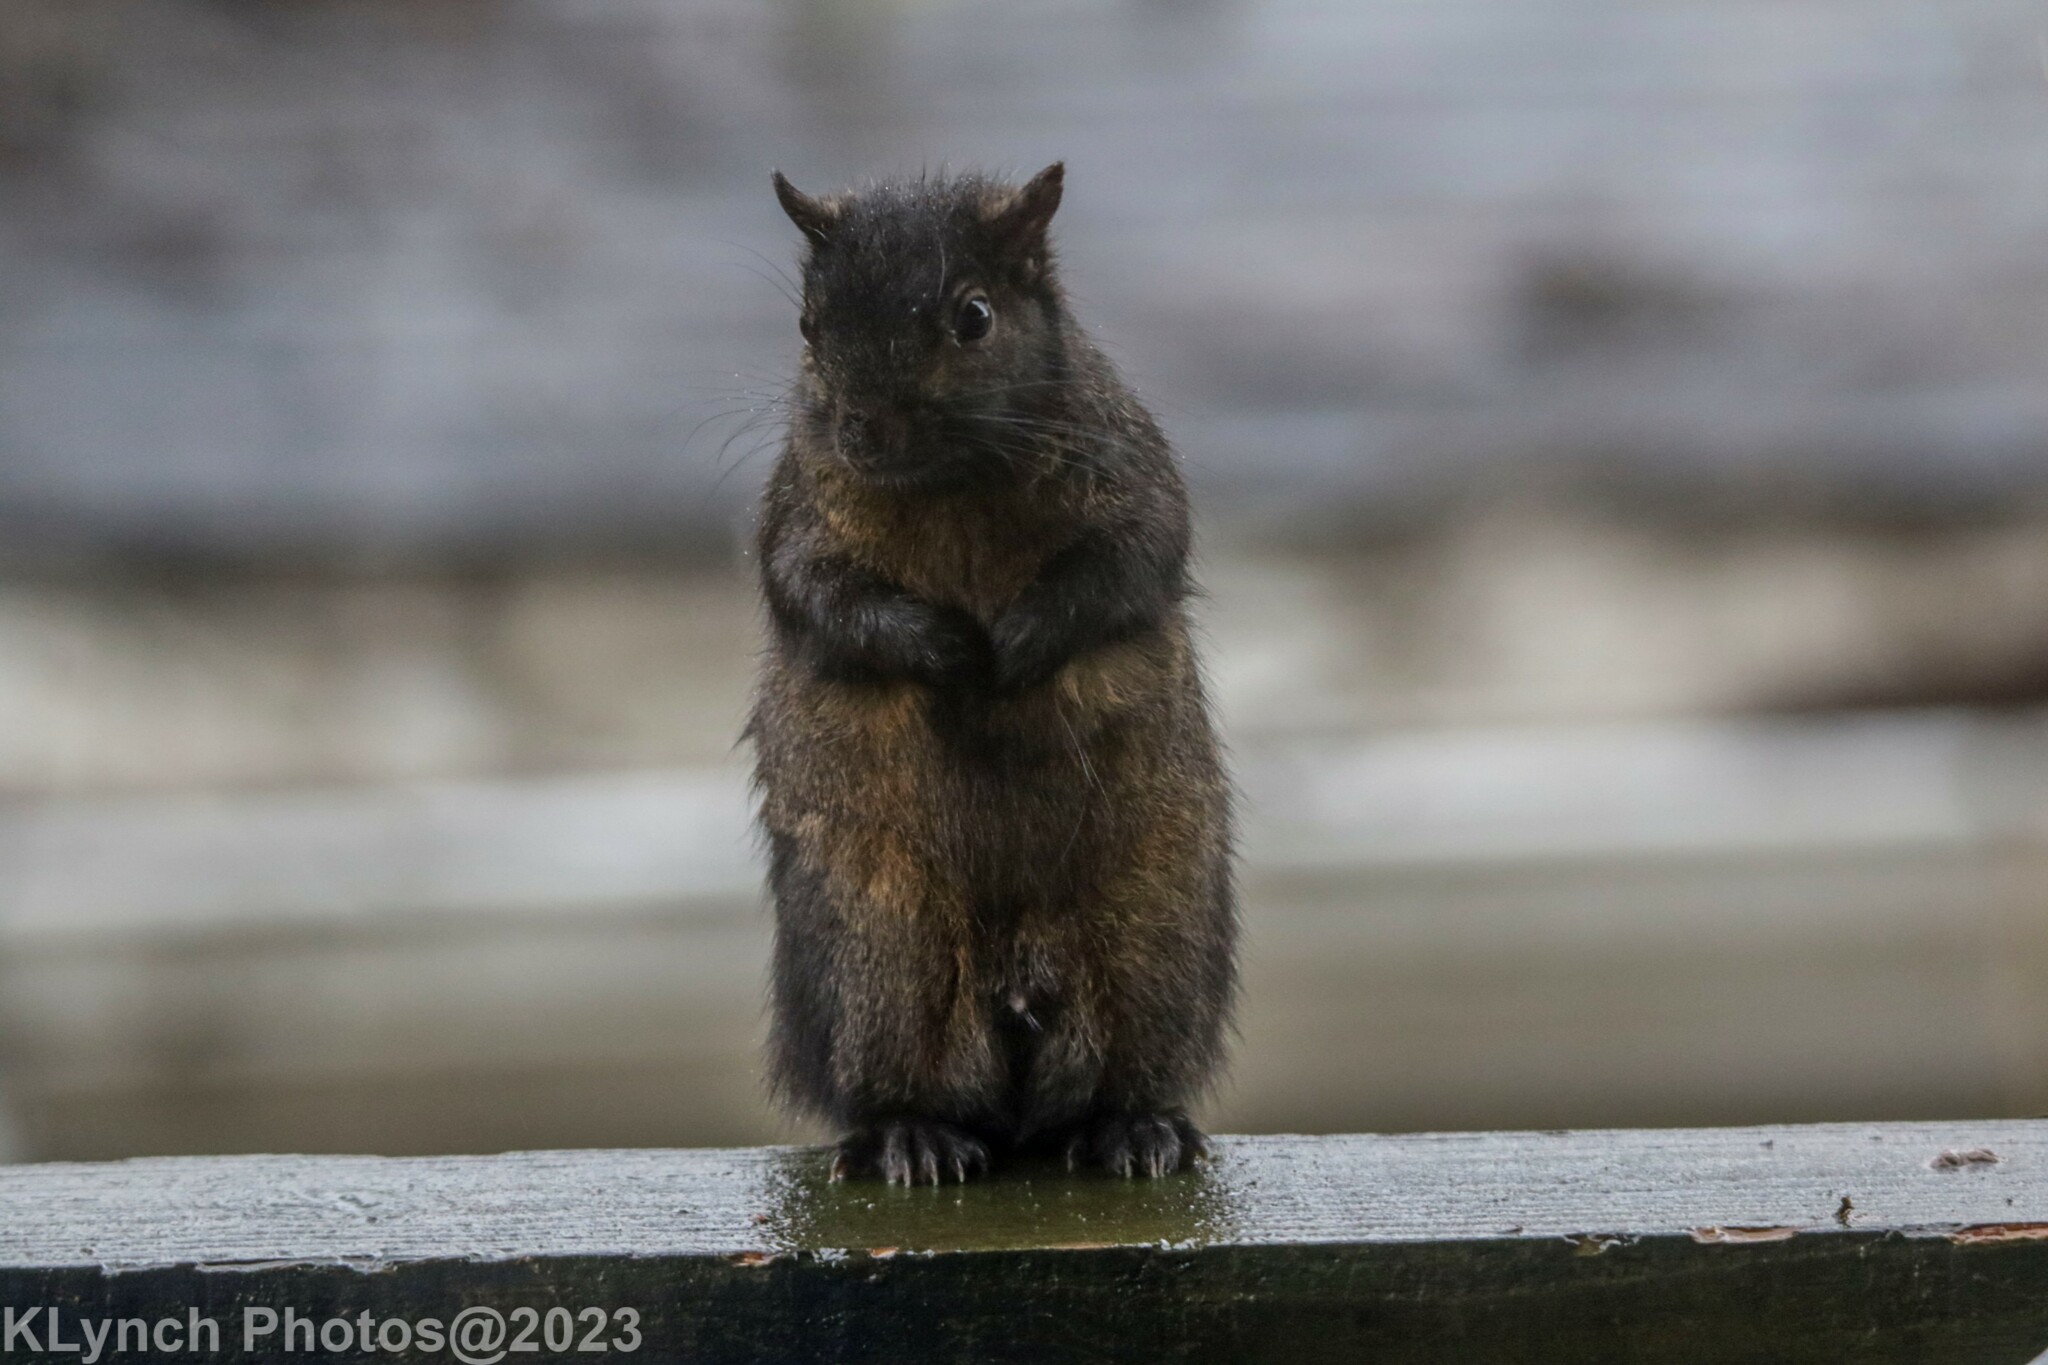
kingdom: Animalia
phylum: Chordata
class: Mammalia
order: Rodentia
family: Sciuridae
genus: Sciurus
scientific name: Sciurus carolinensis
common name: Eastern gray squirrel
